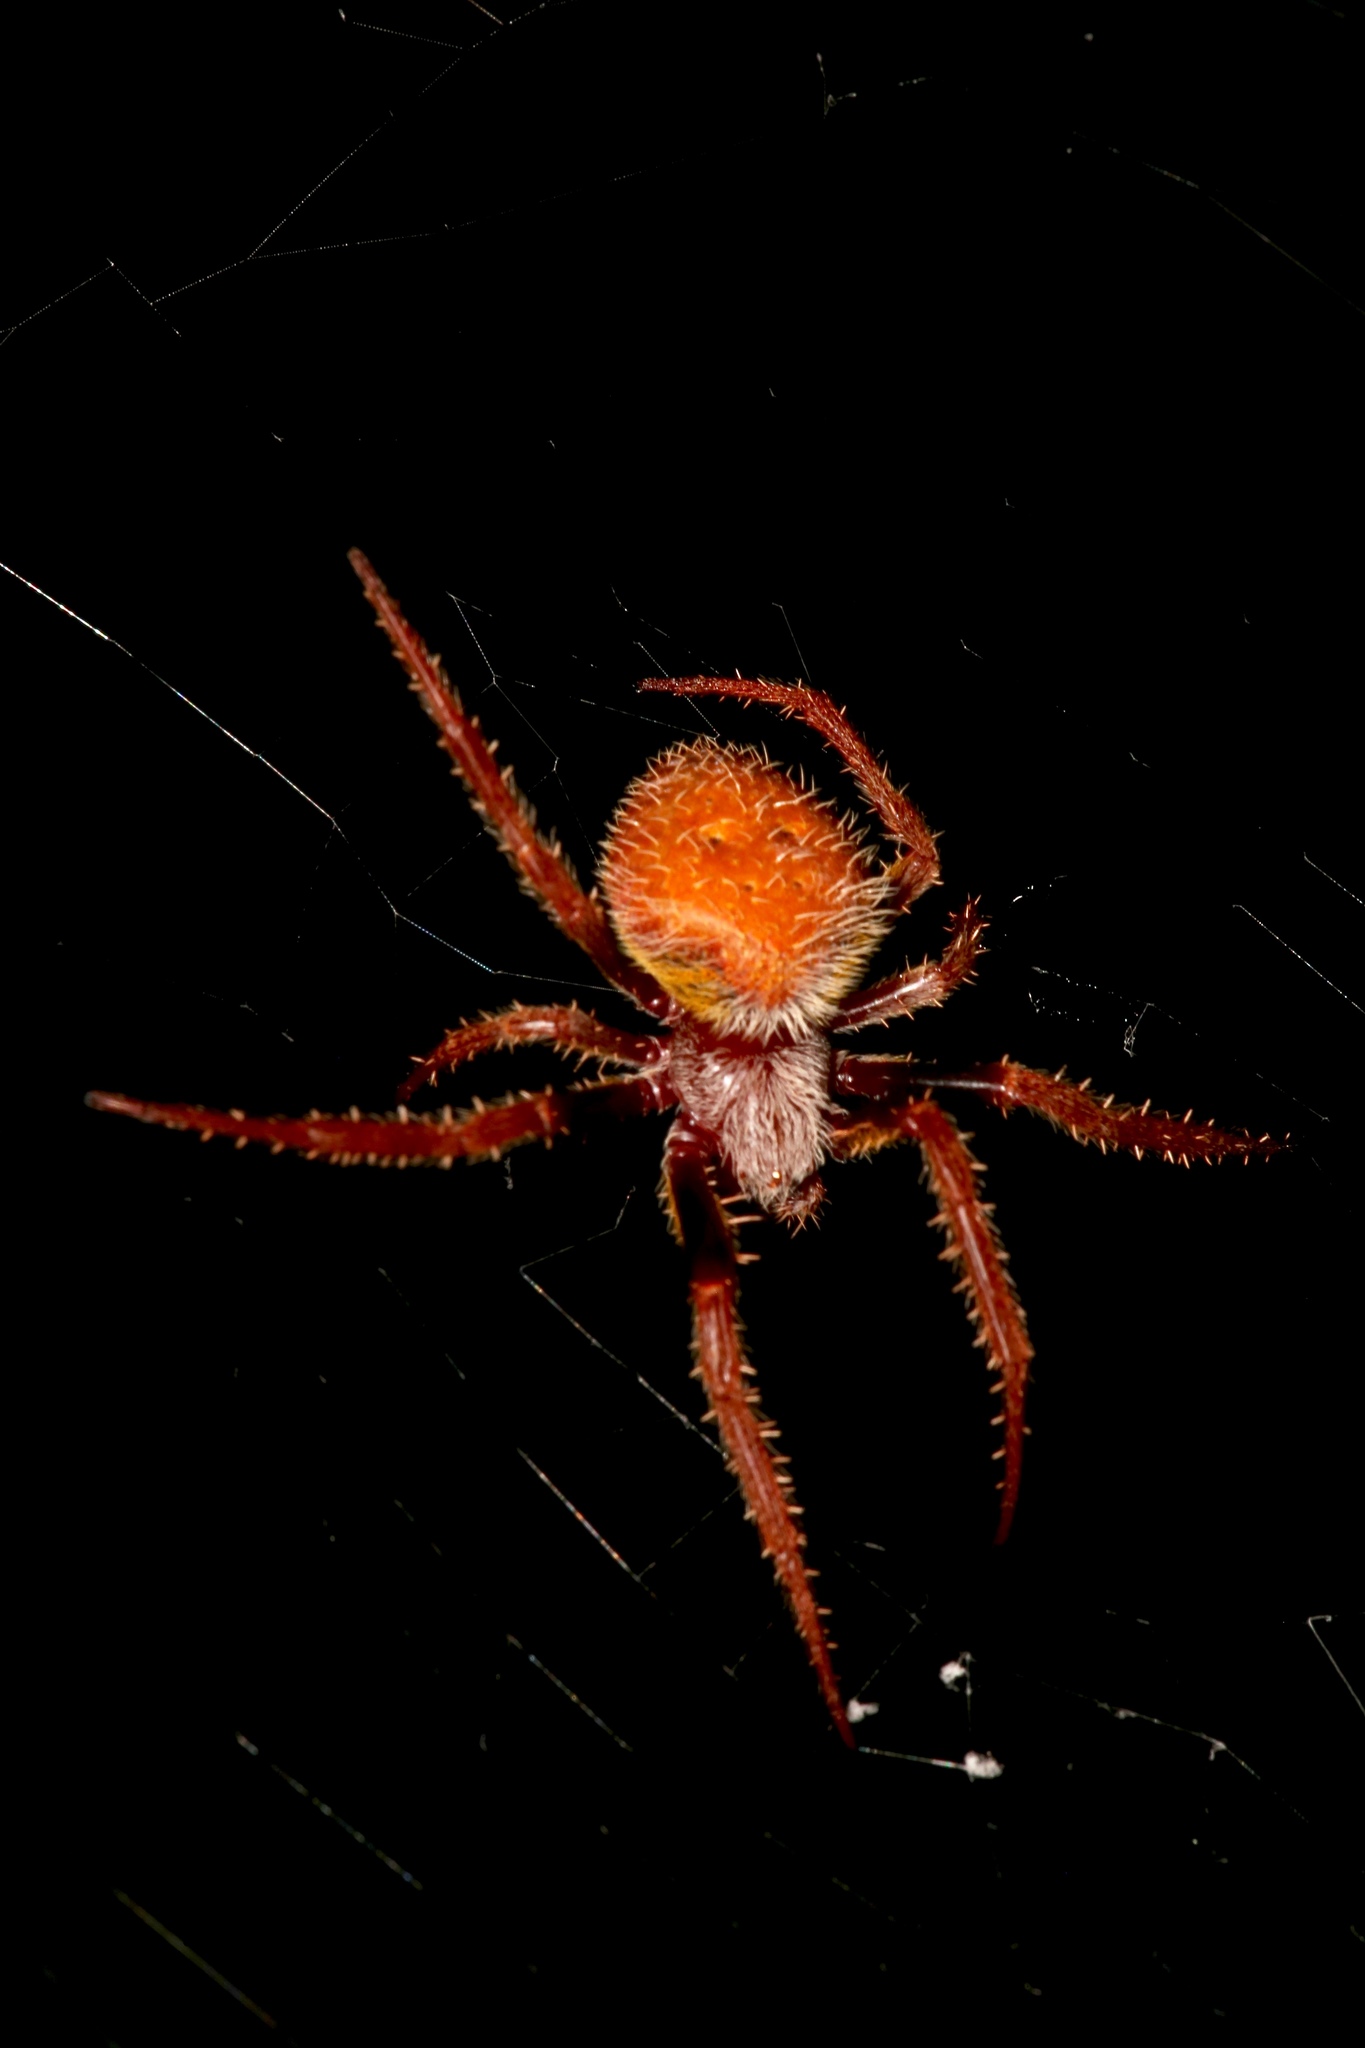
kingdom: Animalia
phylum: Arthropoda
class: Arachnida
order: Araneae
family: Araneidae
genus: Eriophora
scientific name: Eriophora ravilla
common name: Orb weavers
